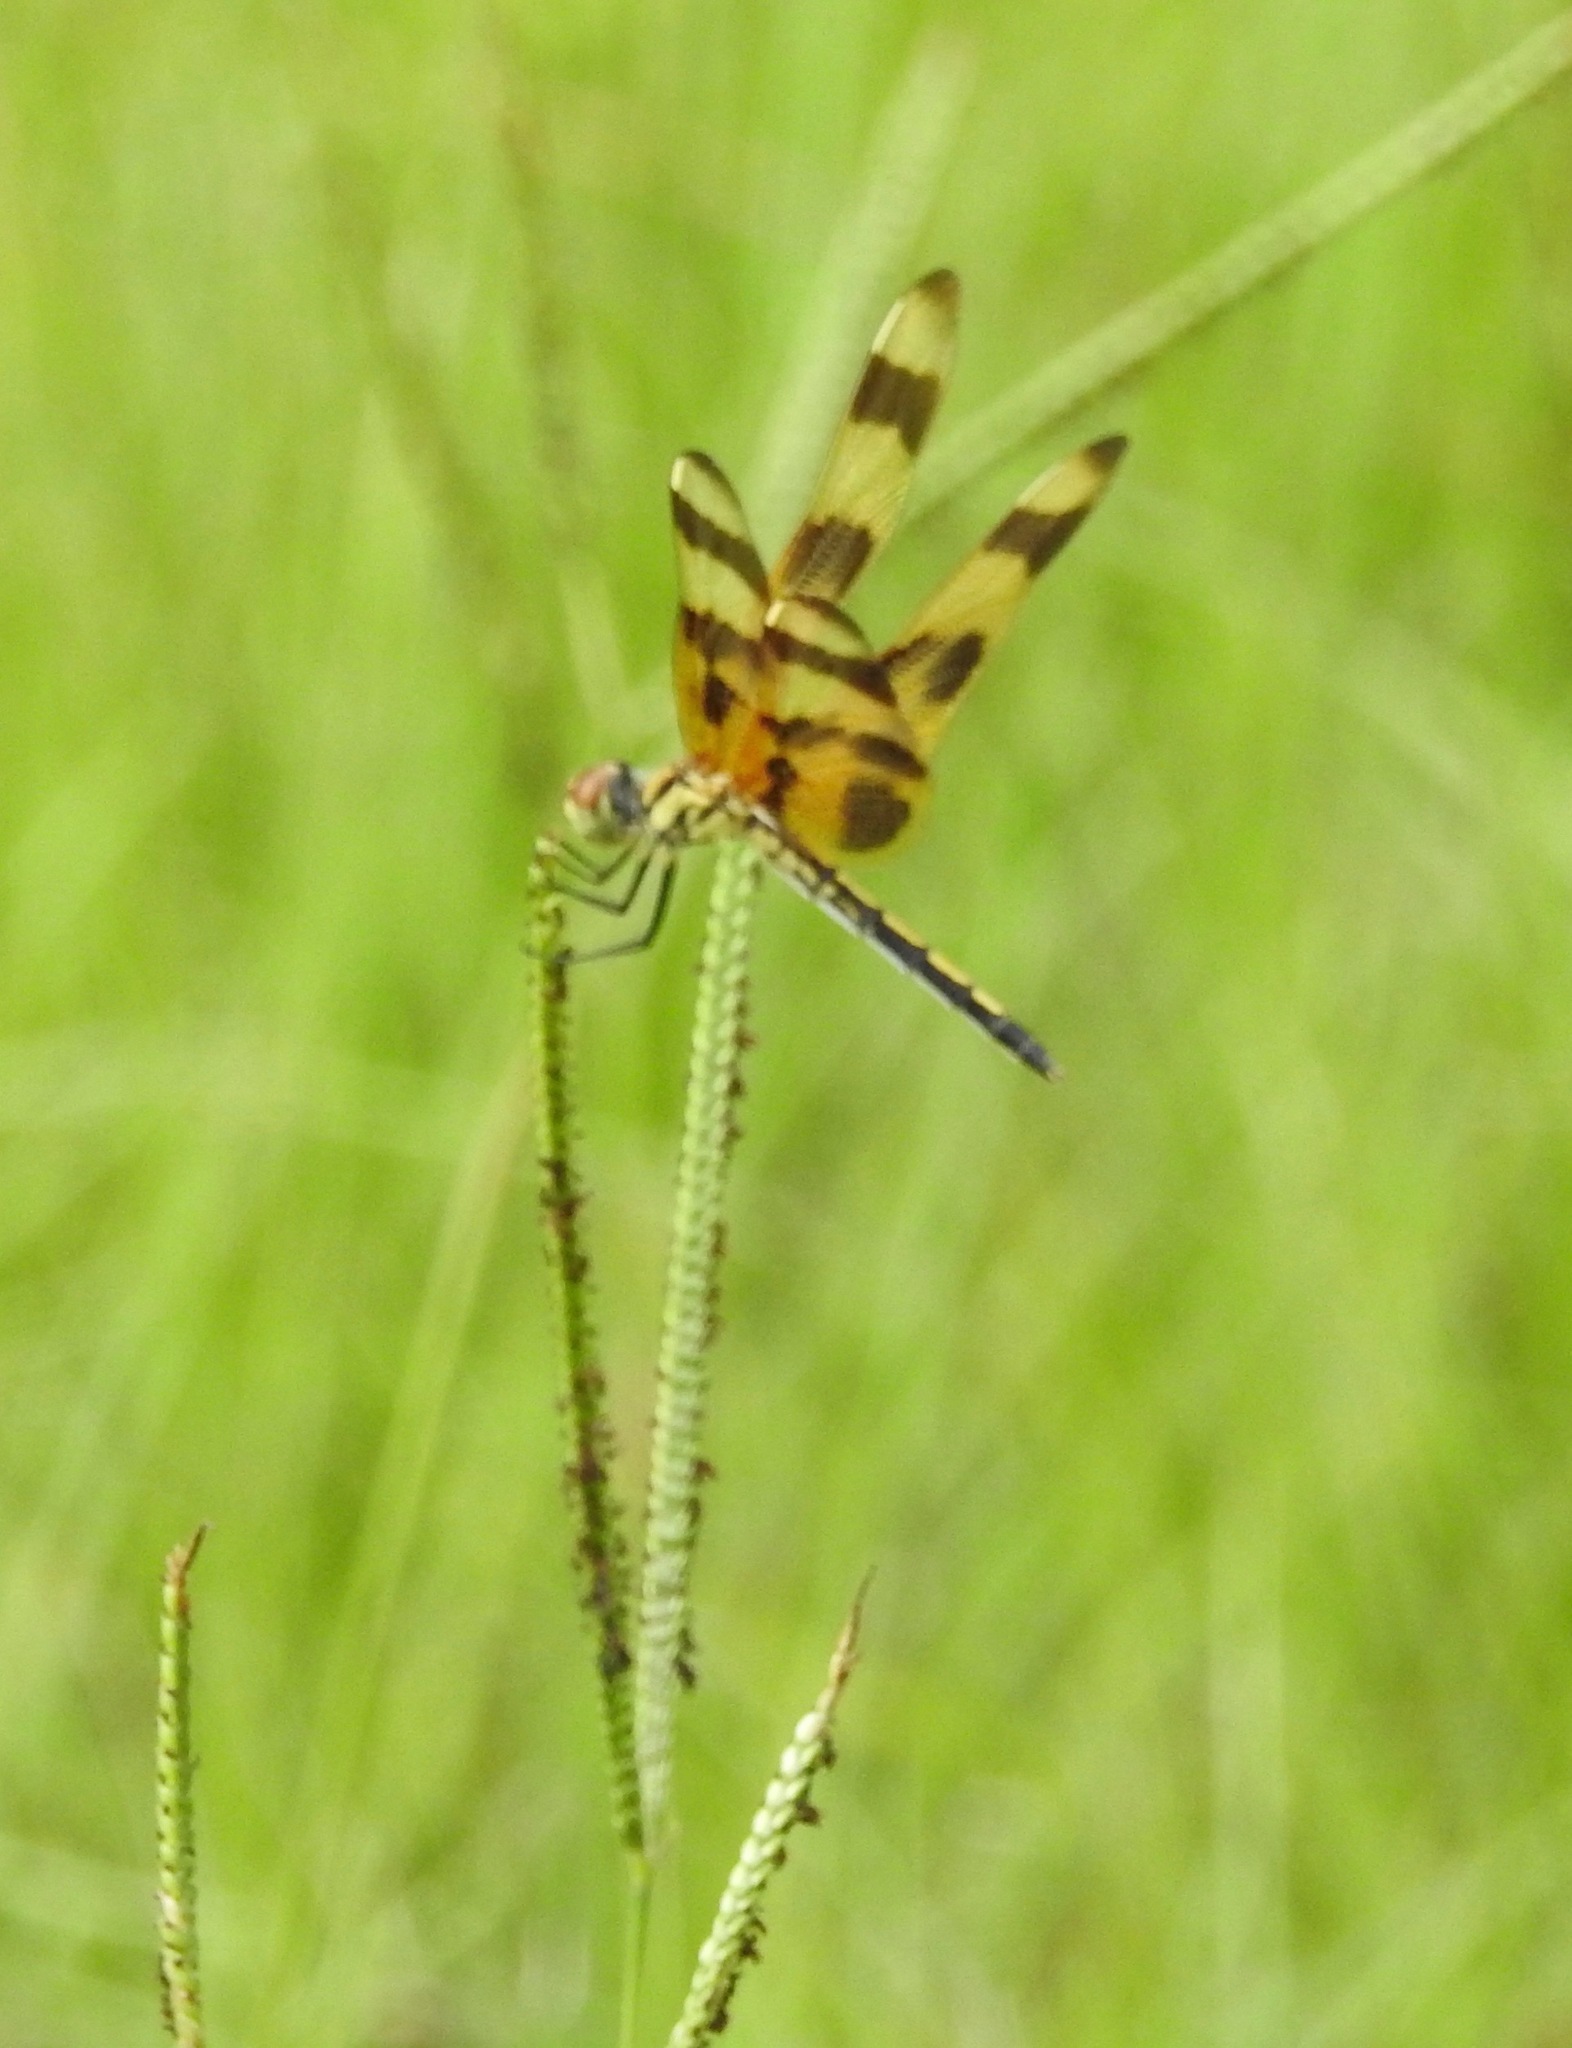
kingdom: Animalia
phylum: Arthropoda
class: Insecta
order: Odonata
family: Libellulidae
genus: Celithemis
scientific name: Celithemis eponina
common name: Halloween pennant
